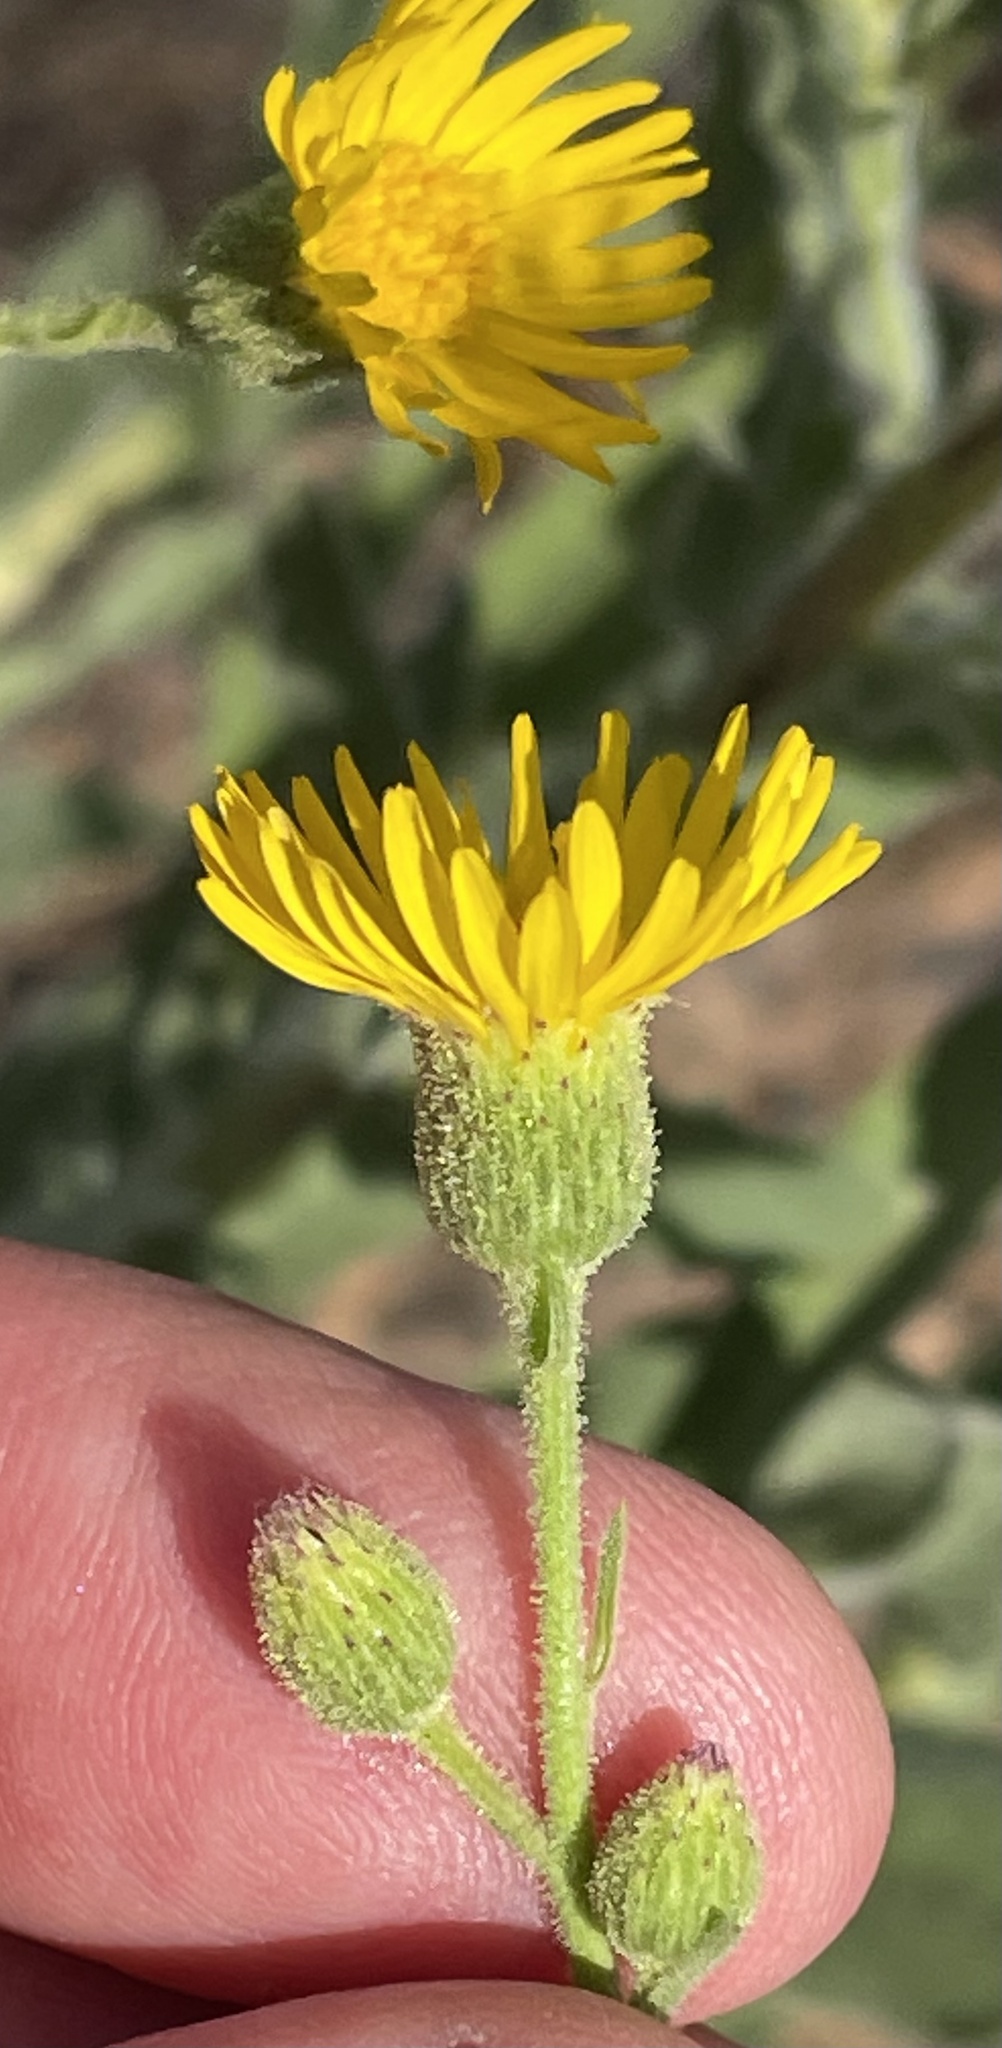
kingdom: Plantae
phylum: Tracheophyta
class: Magnoliopsida
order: Asterales
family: Asteraceae
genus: Heterotheca
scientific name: Heterotheca grandiflora
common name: Telegraphweed
